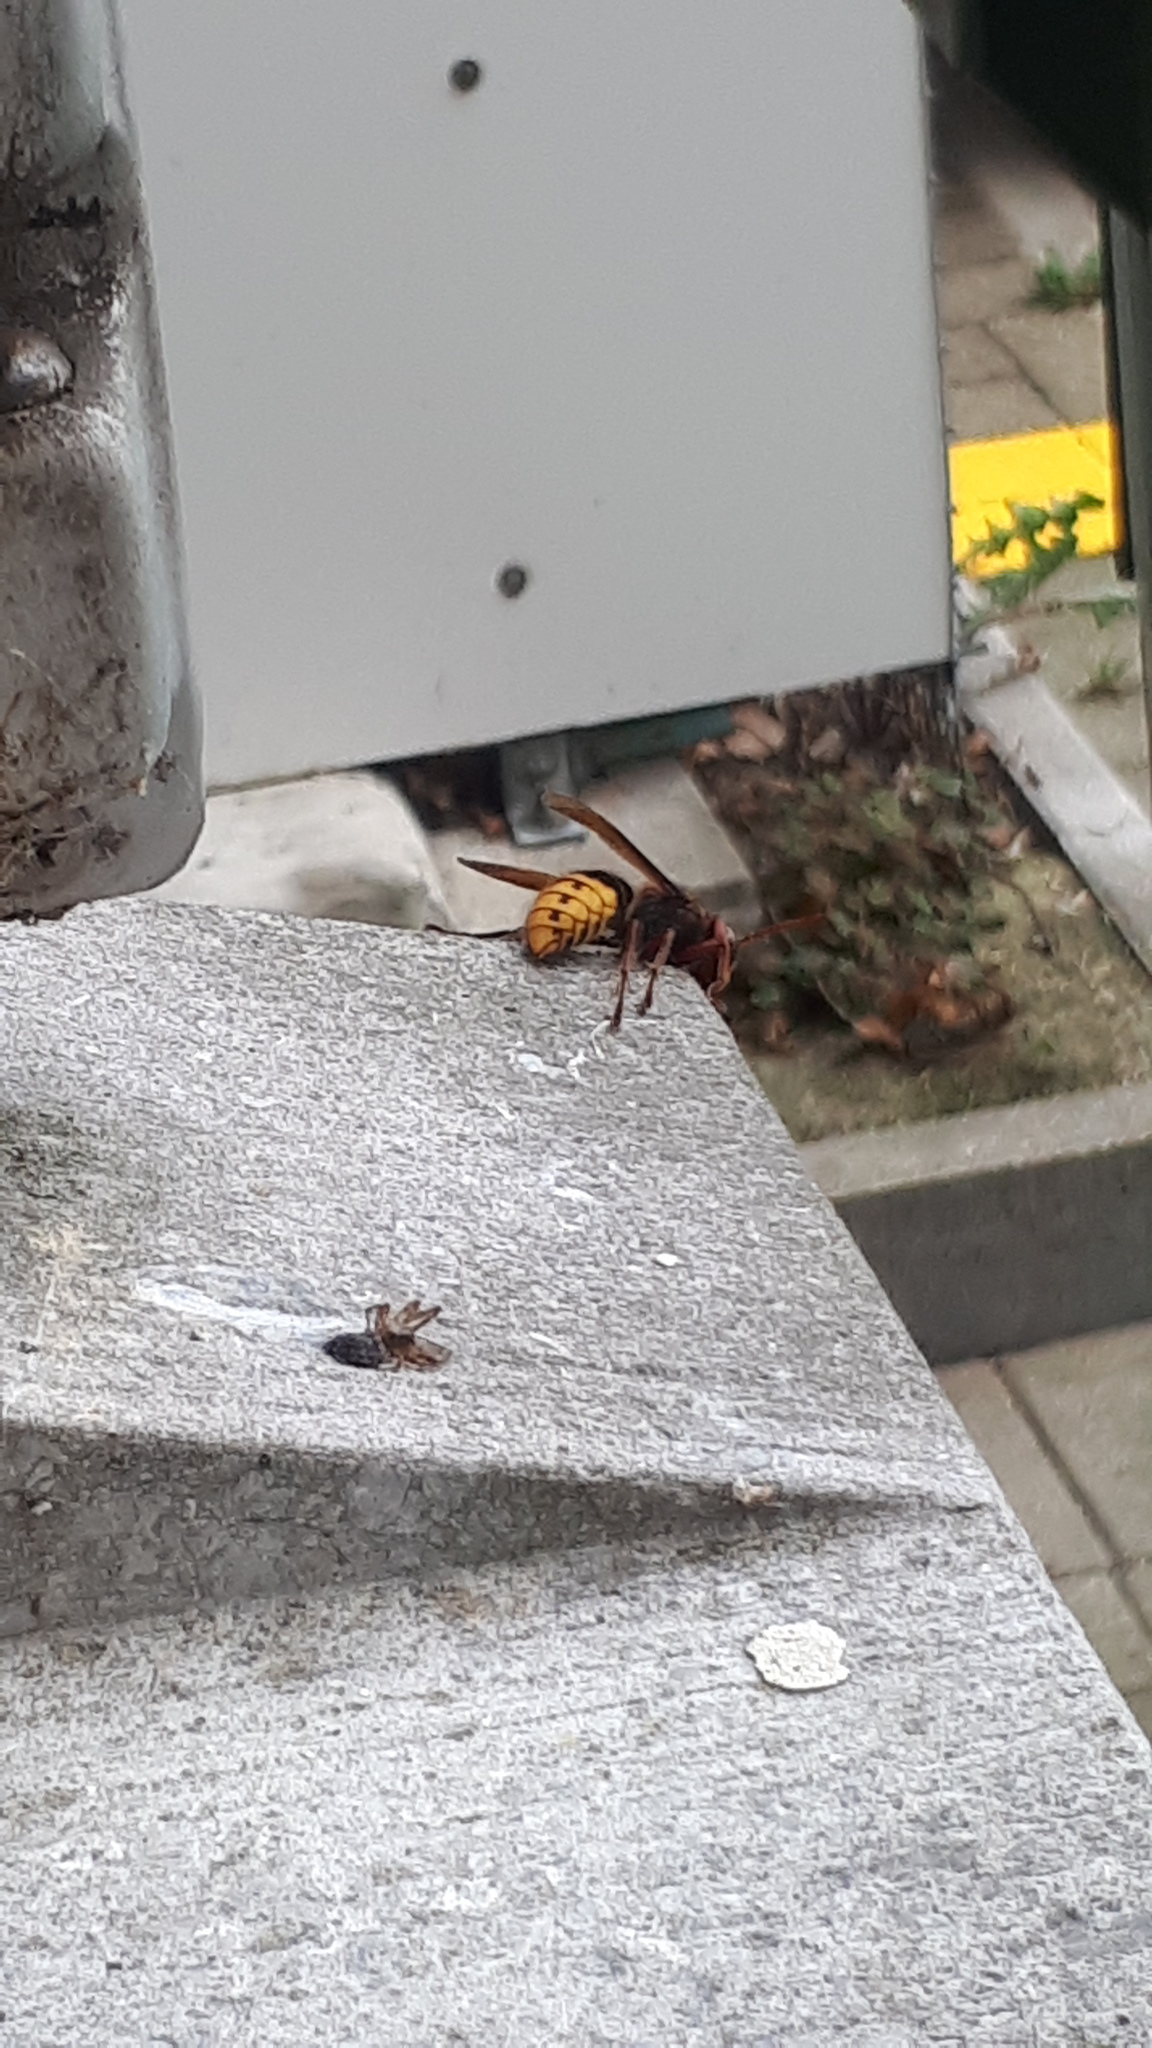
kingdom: Animalia
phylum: Arthropoda
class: Insecta
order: Hymenoptera
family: Vespidae
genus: Vespa
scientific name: Vespa crabro
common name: Hornet
